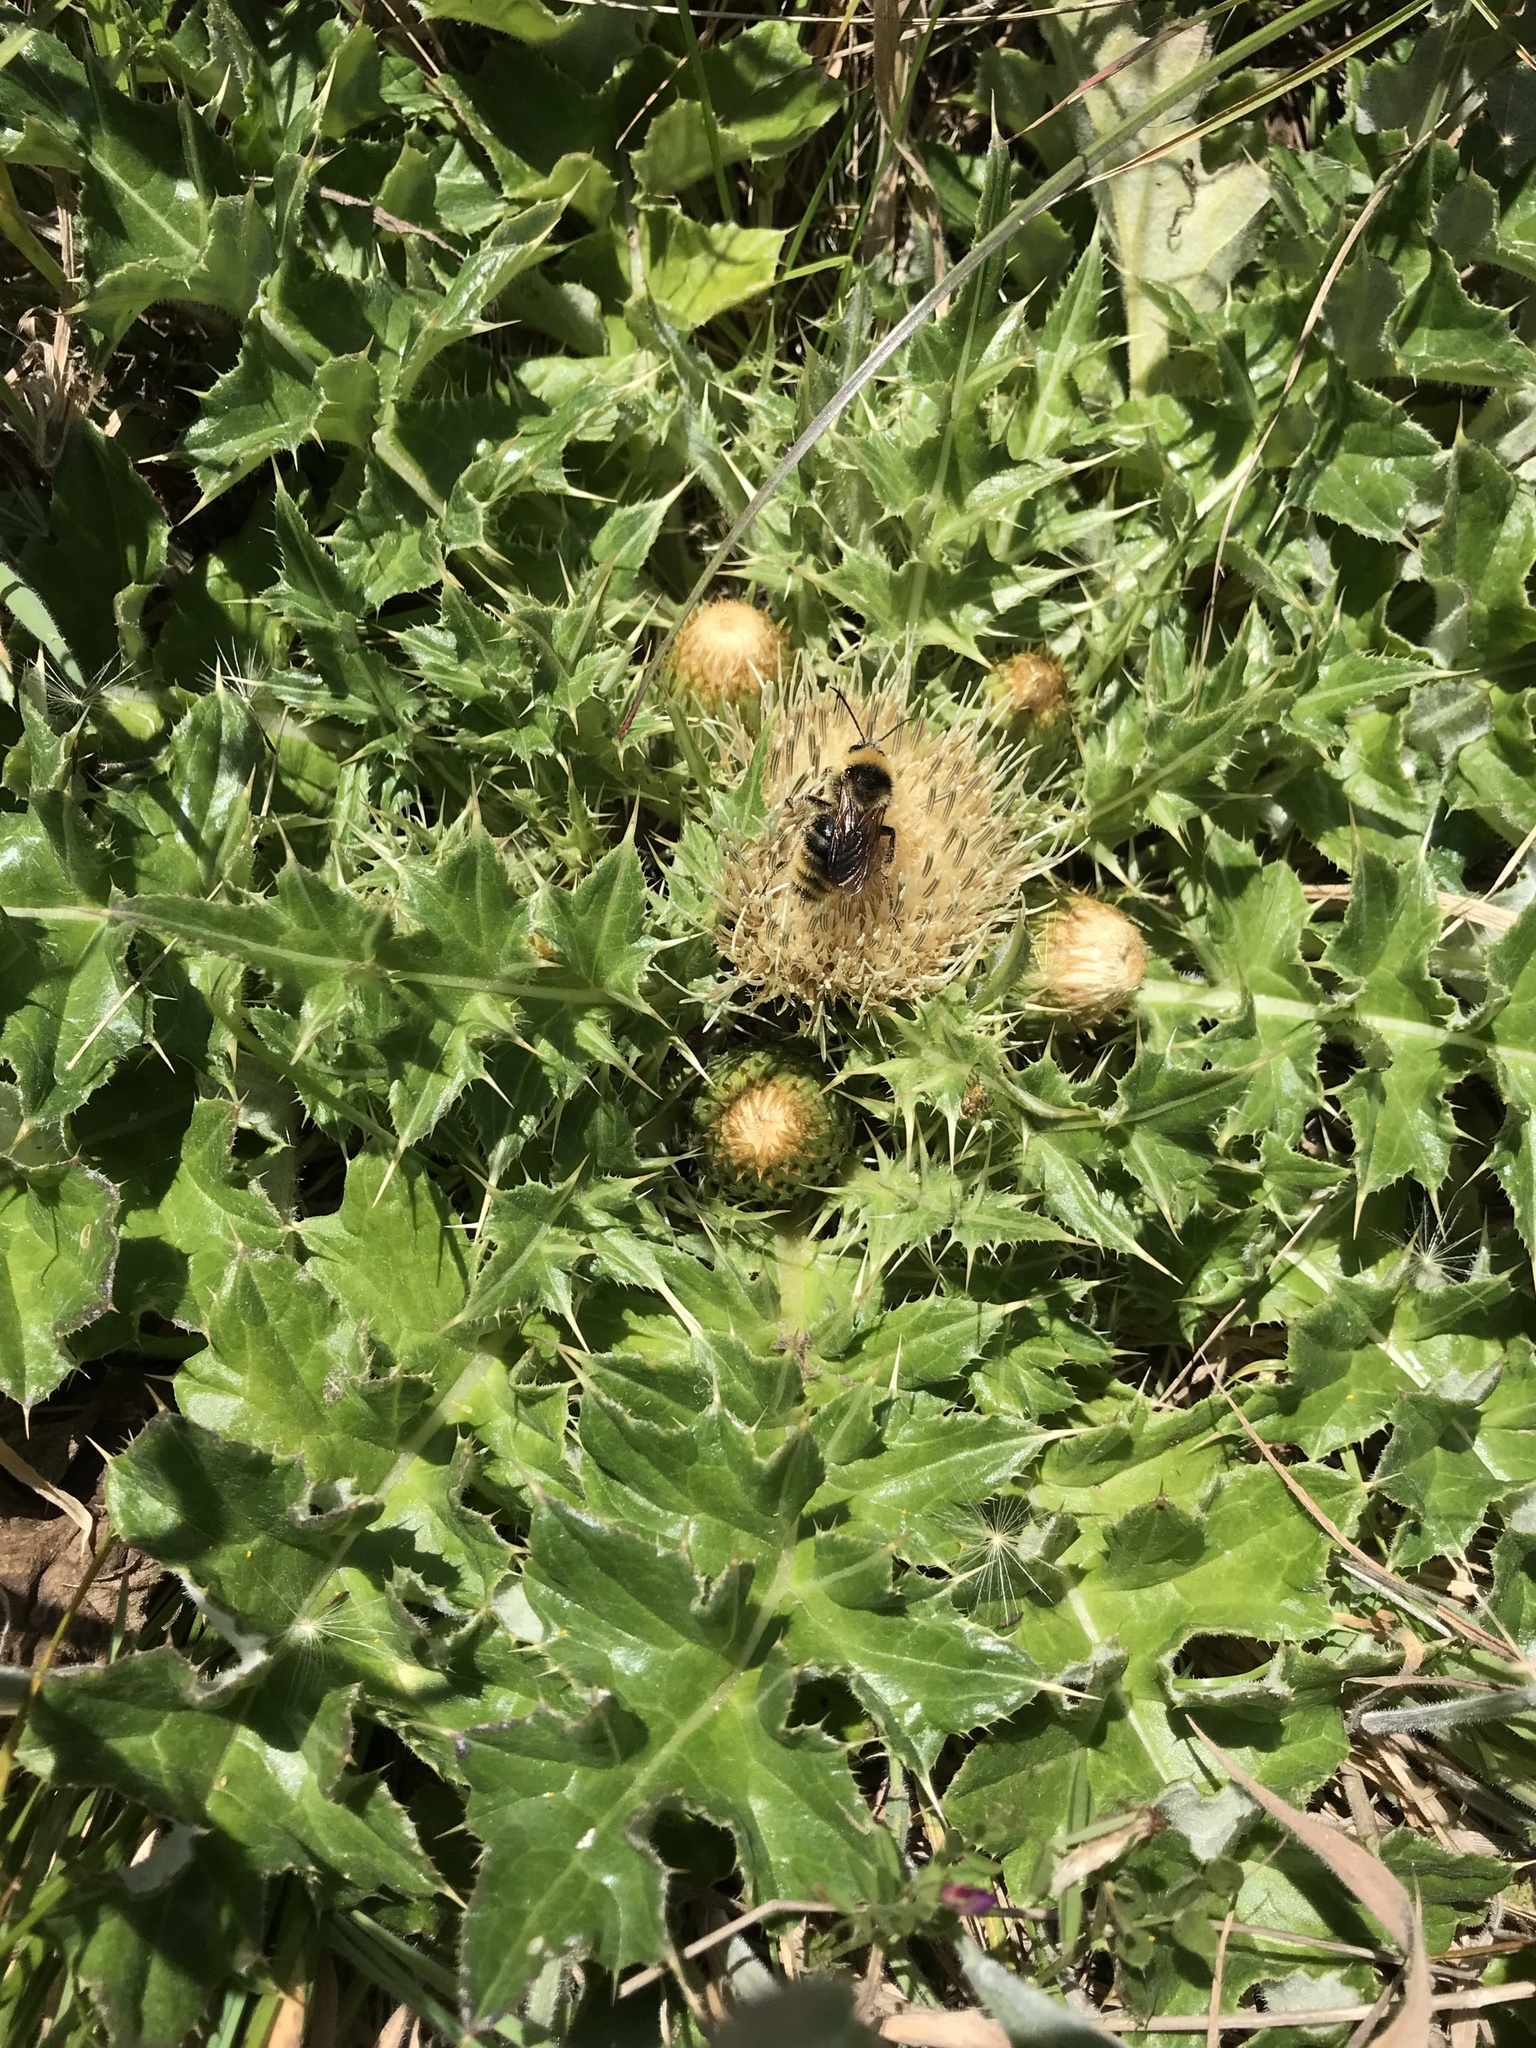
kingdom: Plantae
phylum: Tracheophyta
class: Magnoliopsida
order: Asterales
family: Asteraceae
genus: Cirsium
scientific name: Cirsium quercetorum
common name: Alameda county thistle
